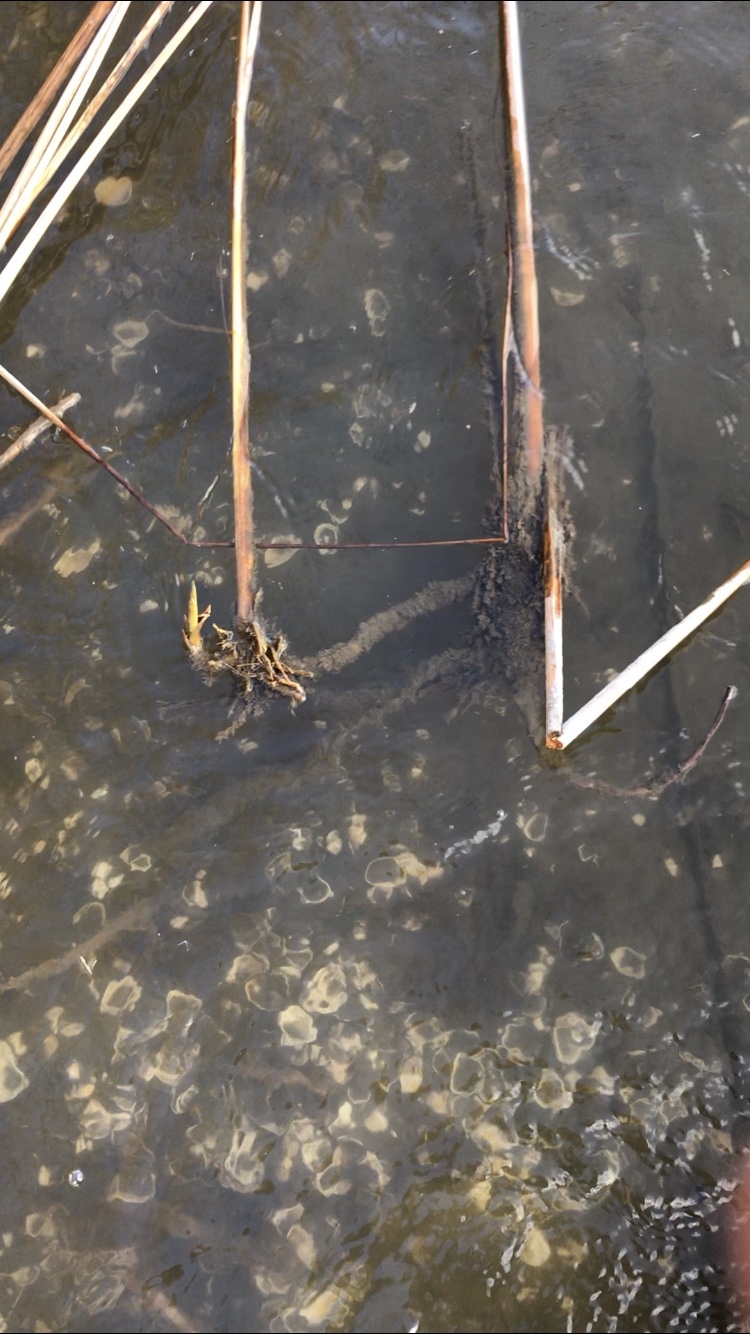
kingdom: Animalia
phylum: Mollusca
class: Bivalvia
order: Venerida
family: Cyrenidae
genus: Corbicula
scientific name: Corbicula fluminea
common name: Asian clam
